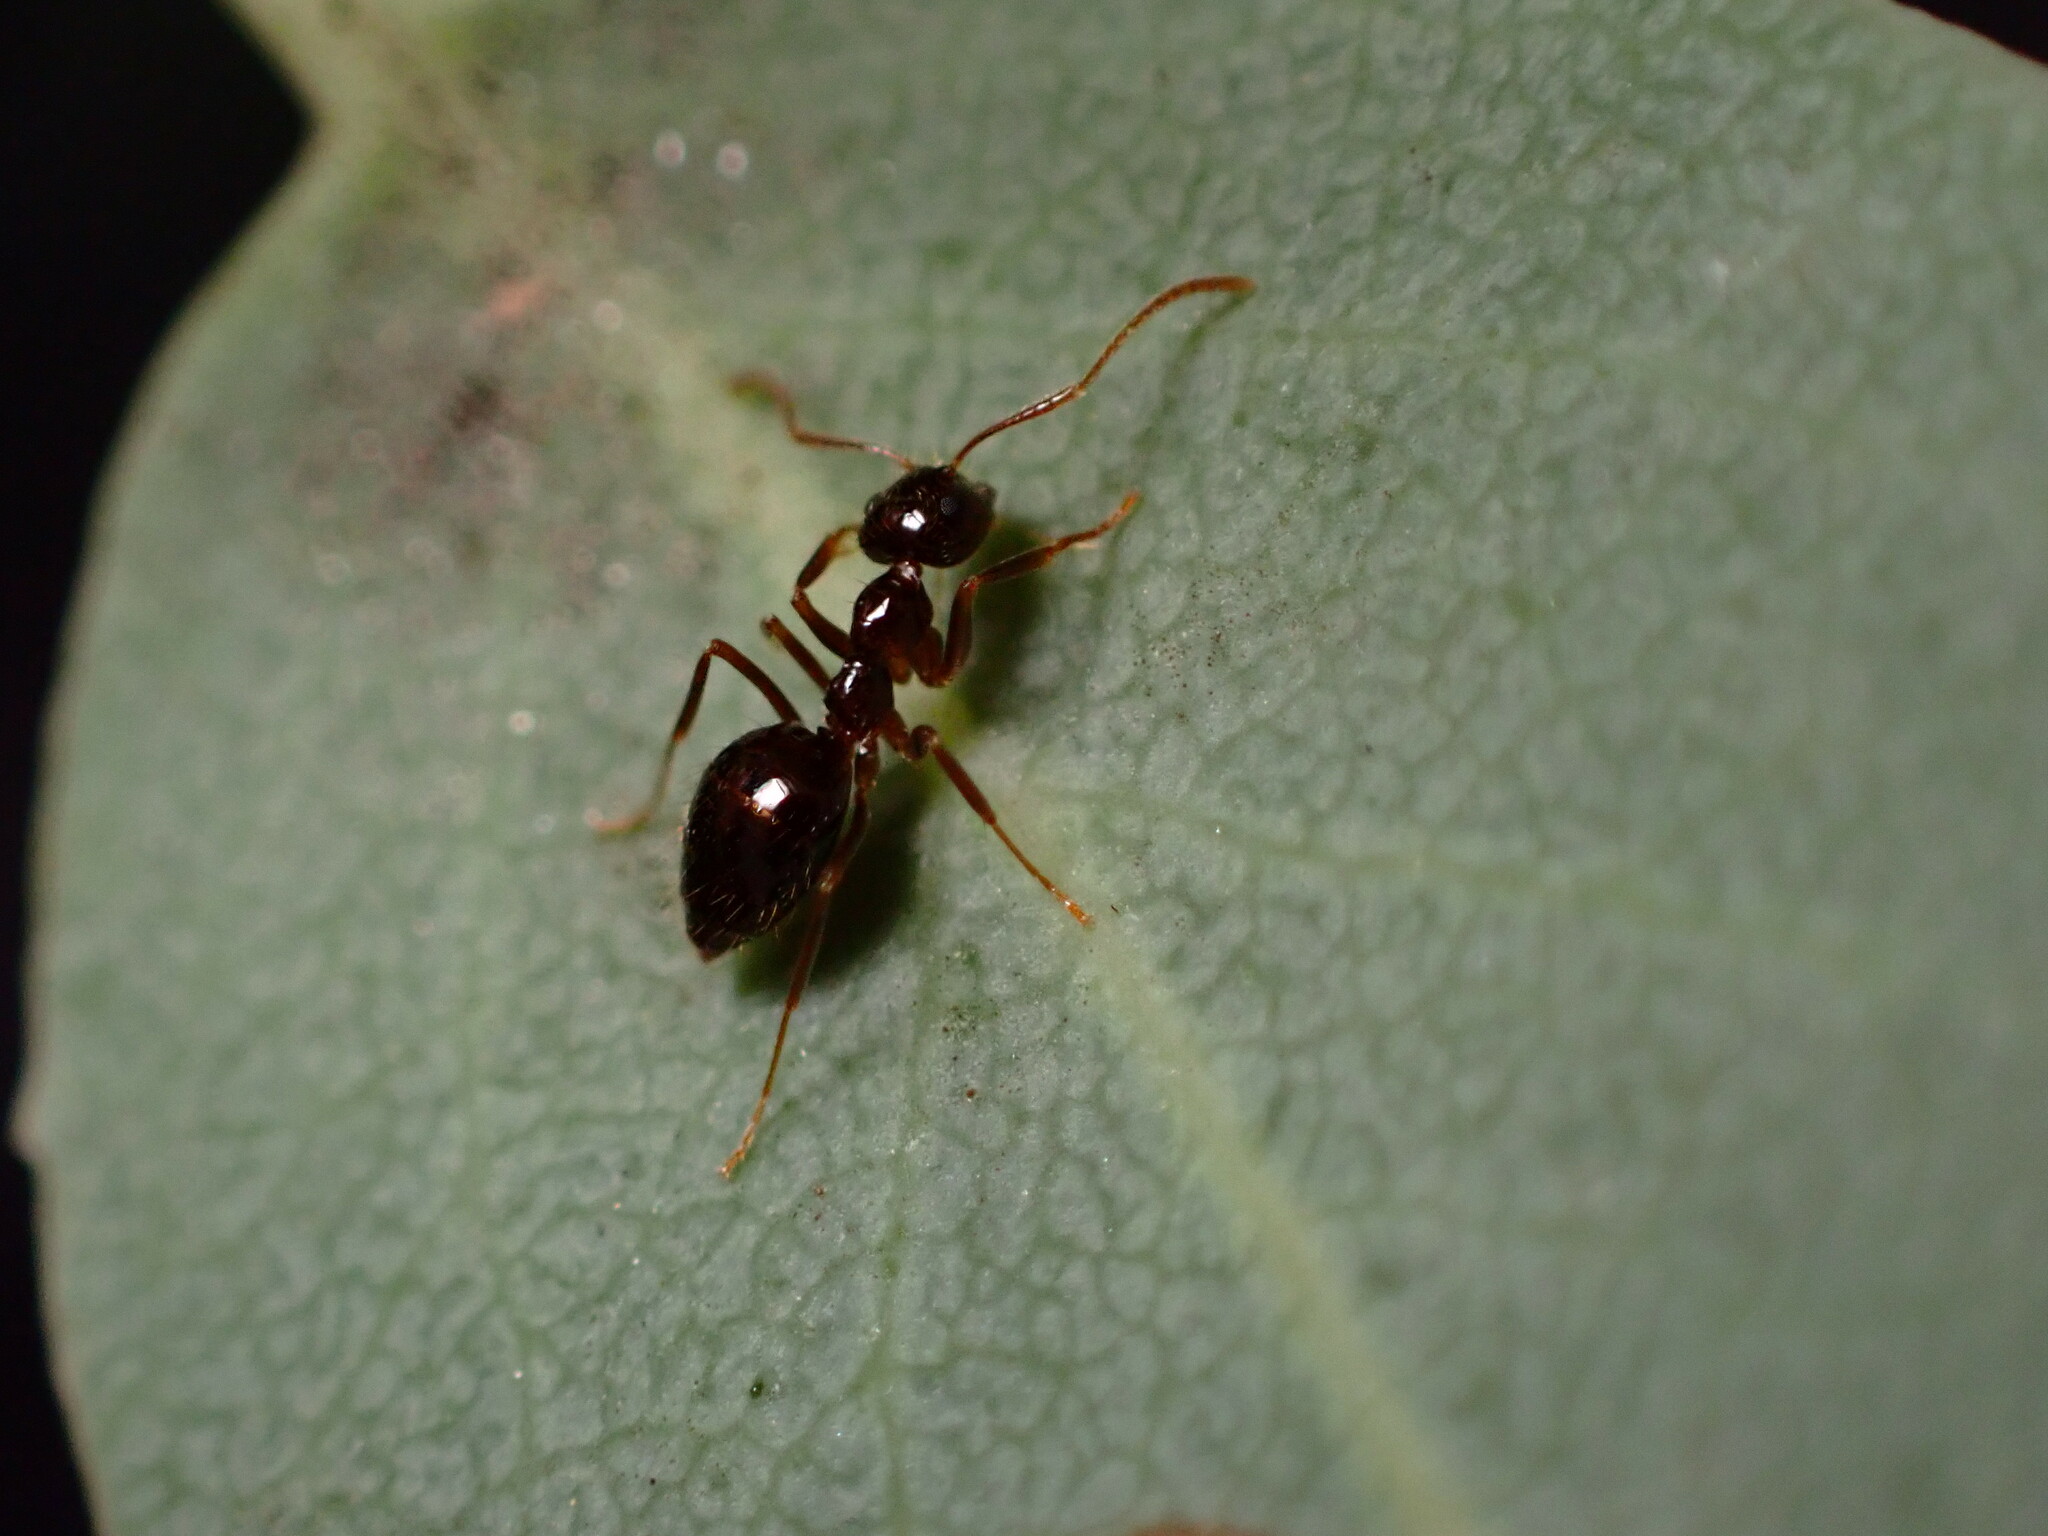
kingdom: Animalia
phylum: Arthropoda
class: Insecta
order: Hymenoptera
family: Formicidae
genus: Prenolepis
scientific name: Prenolepis imparis
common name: Small honey ant
